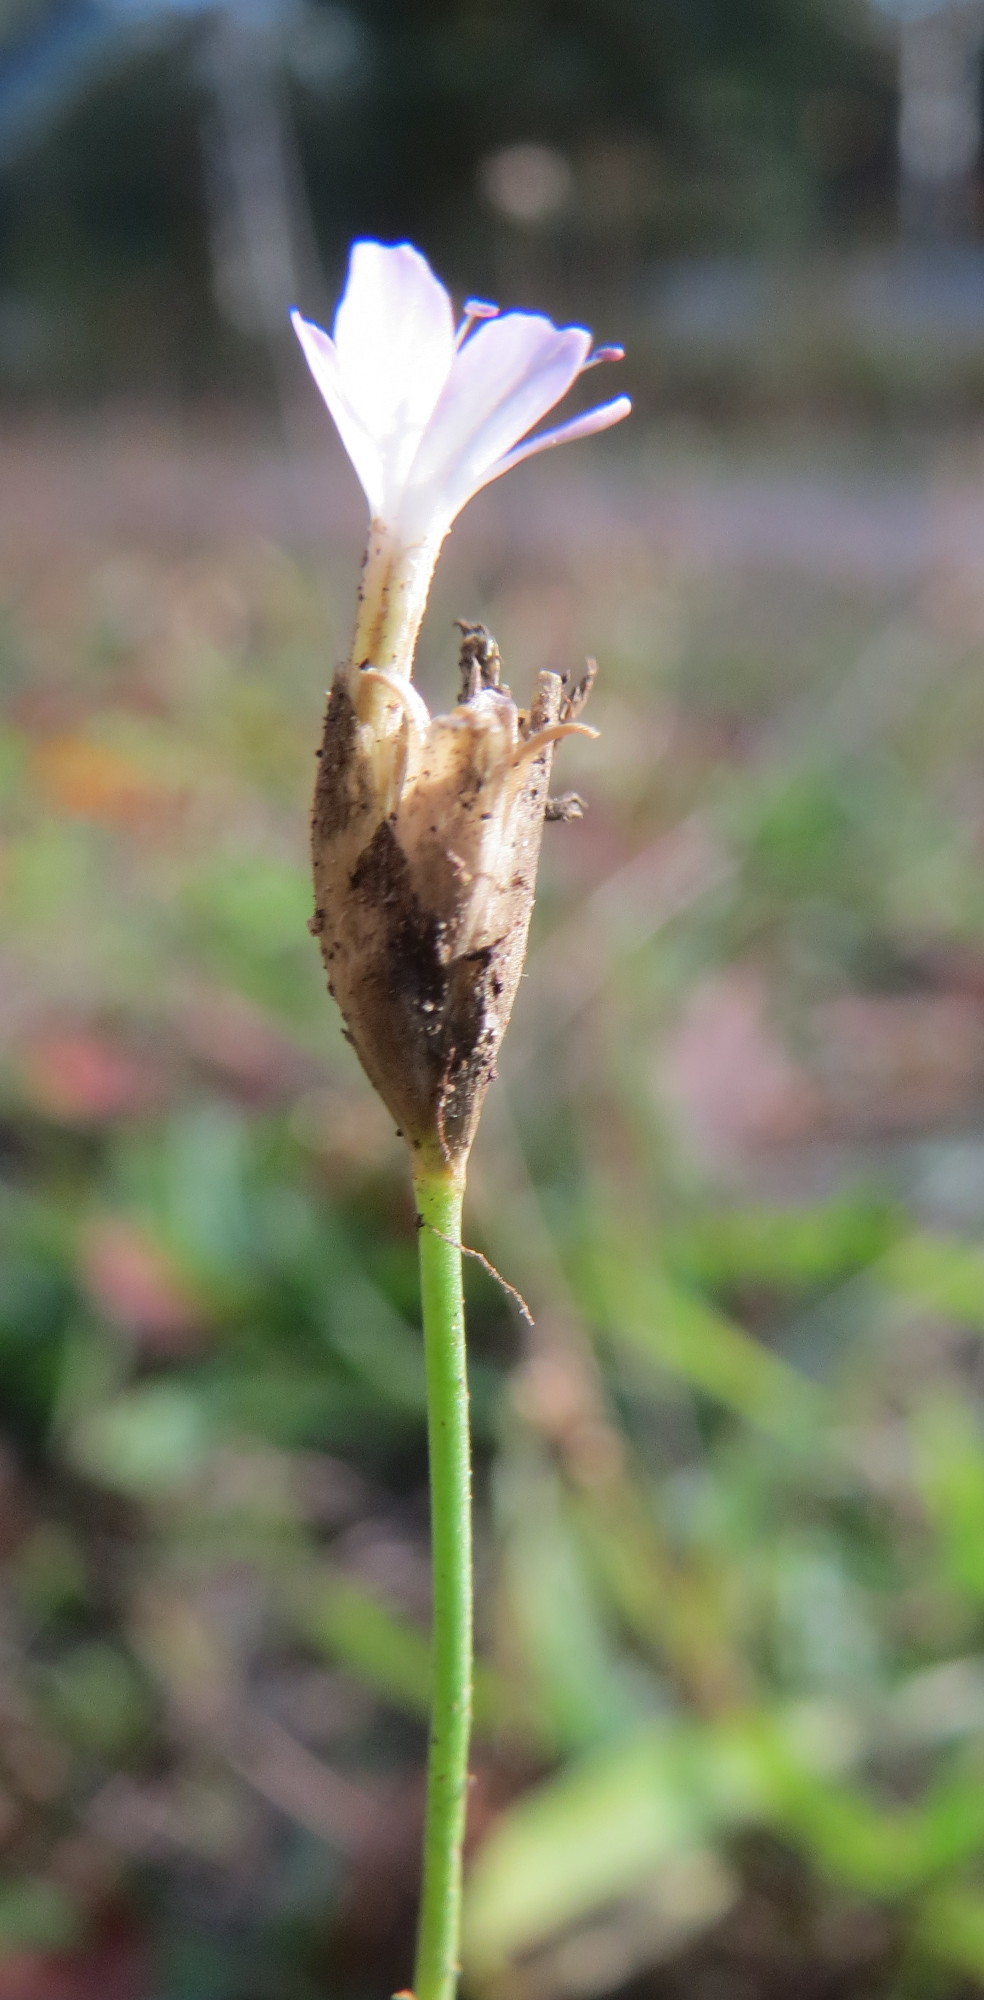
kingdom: Plantae
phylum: Tracheophyta
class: Magnoliopsida
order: Caryophyllales
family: Caryophyllaceae
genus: Petrorhagia
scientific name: Petrorhagia prolifera
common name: Proliferous pink
